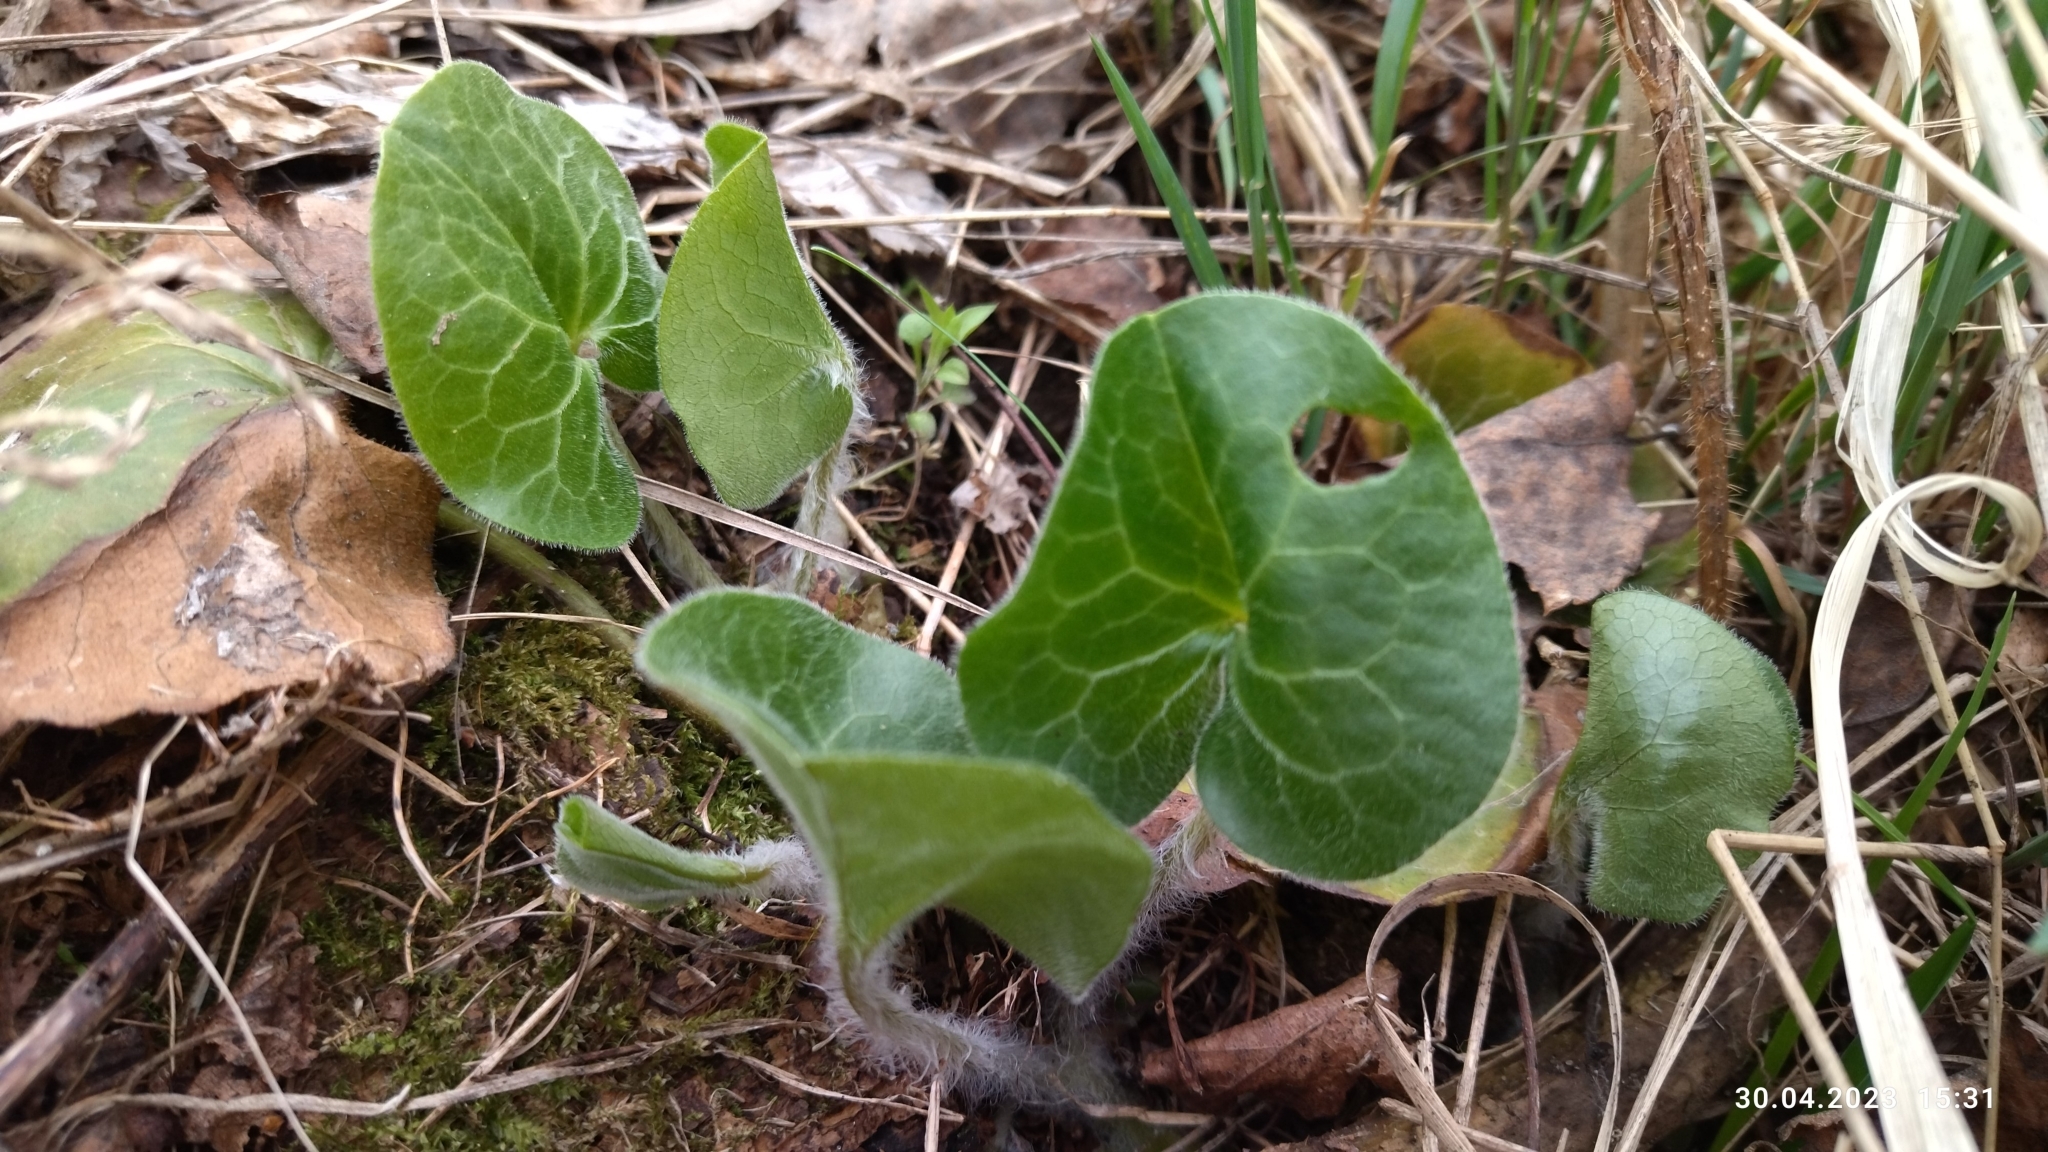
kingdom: Plantae
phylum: Tracheophyta
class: Magnoliopsida
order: Piperales
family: Aristolochiaceae
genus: Asarum
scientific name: Asarum europaeum
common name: Asarabacca
